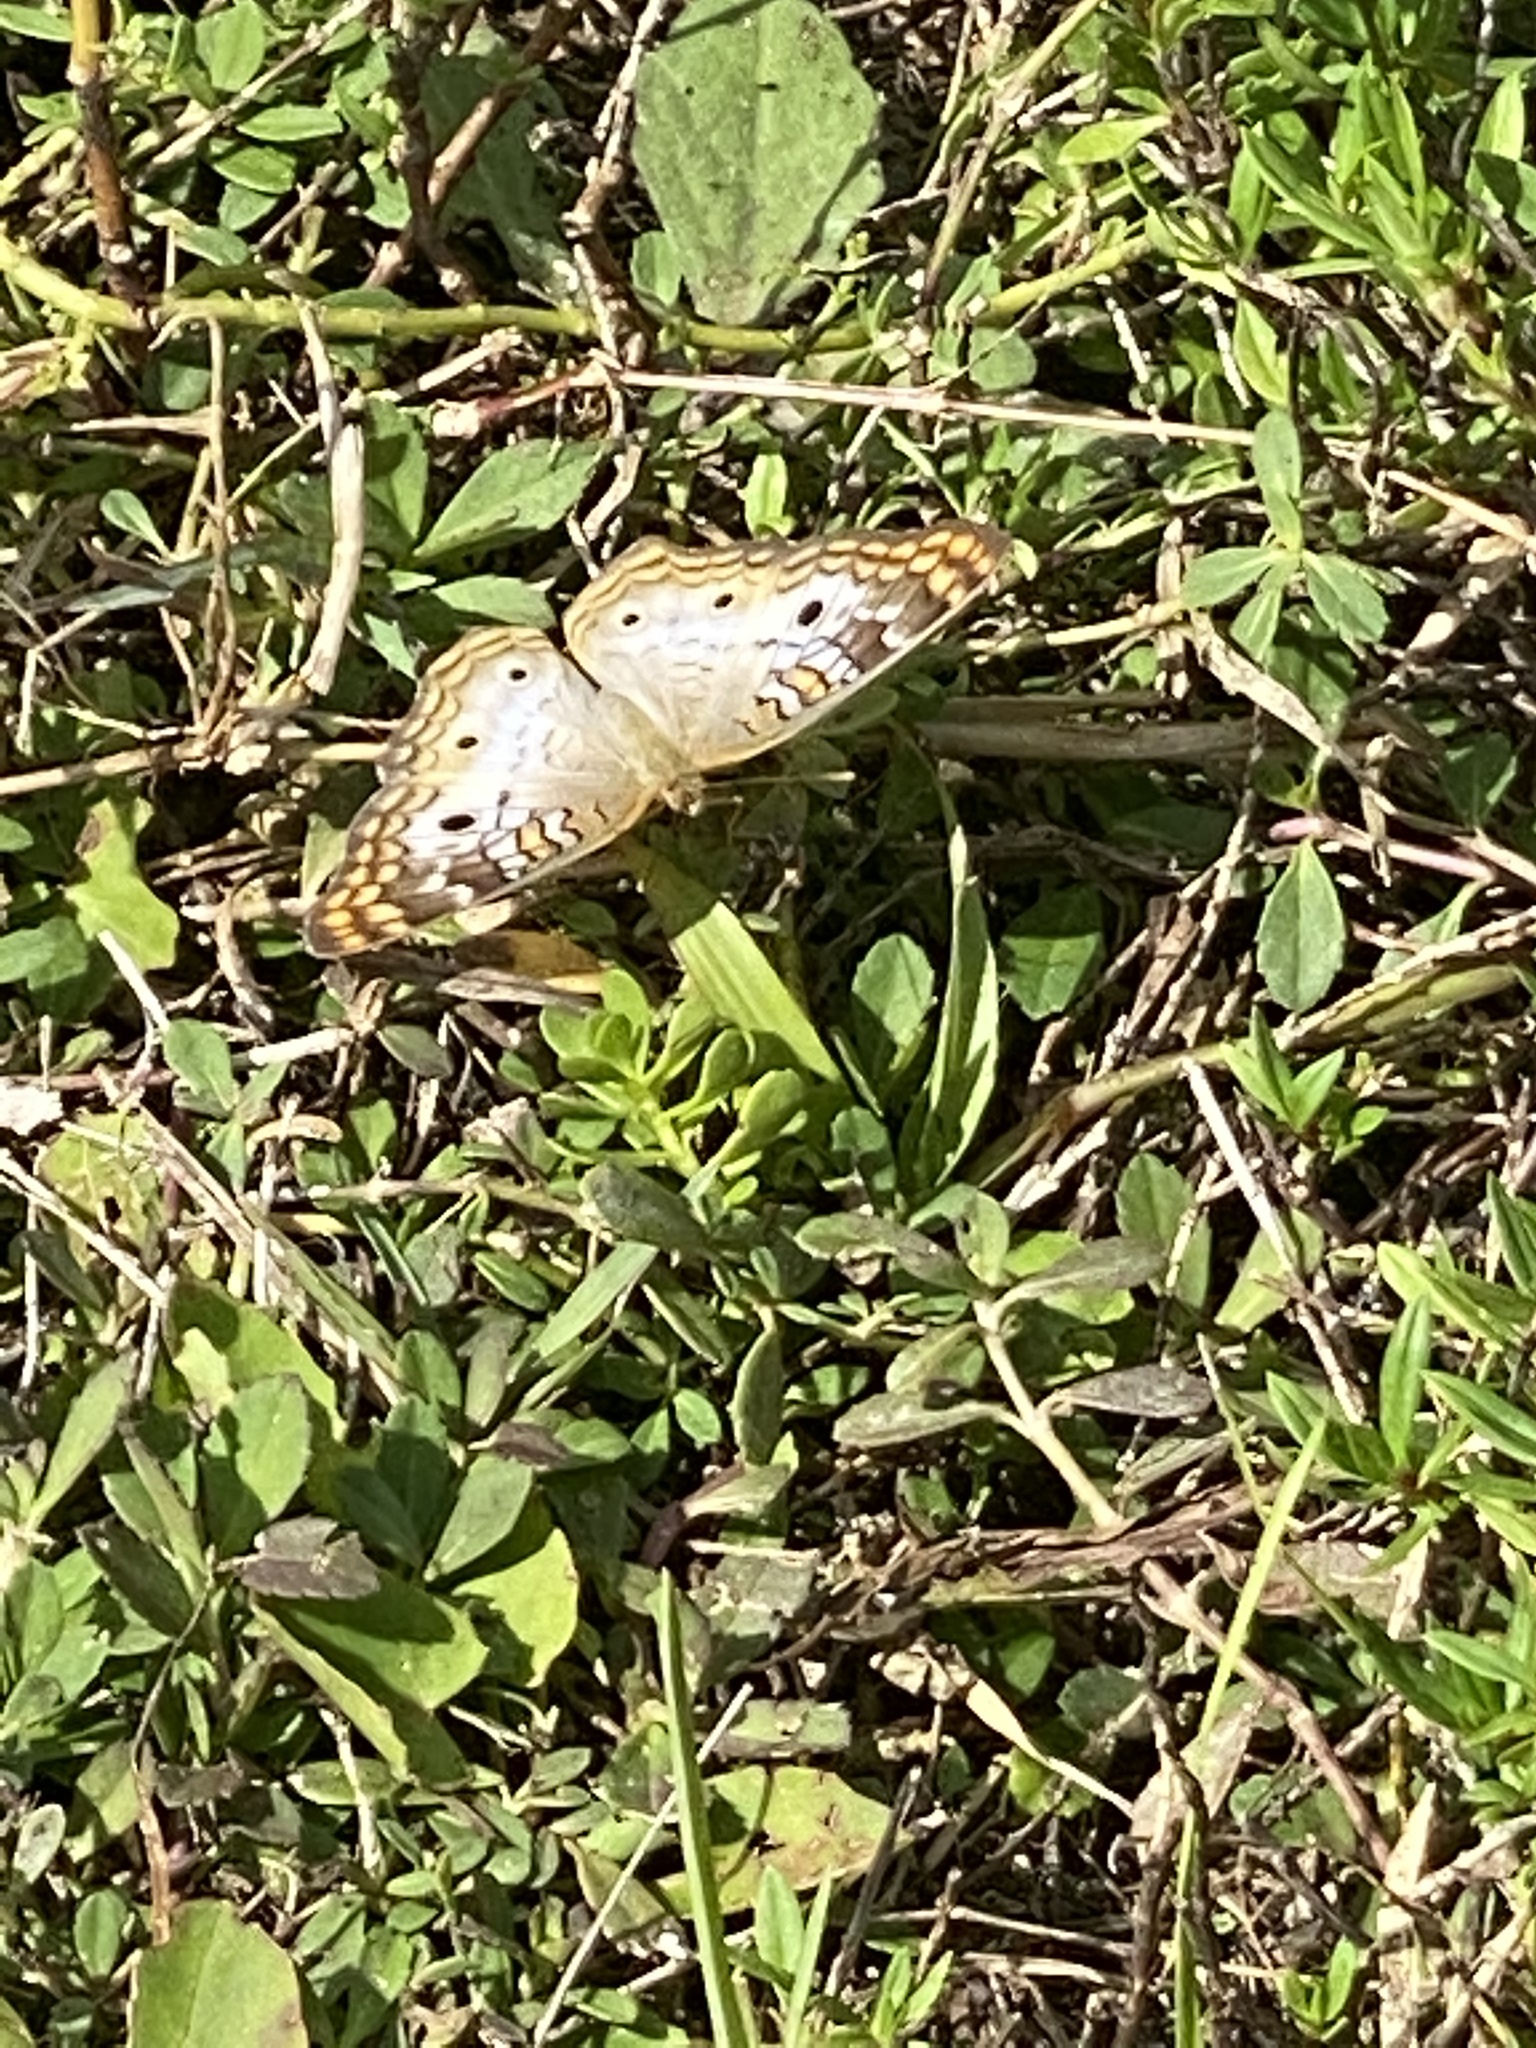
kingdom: Animalia
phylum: Arthropoda
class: Insecta
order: Lepidoptera
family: Nymphalidae
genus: Anartia
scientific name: Anartia jatrophae
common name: White peacock
